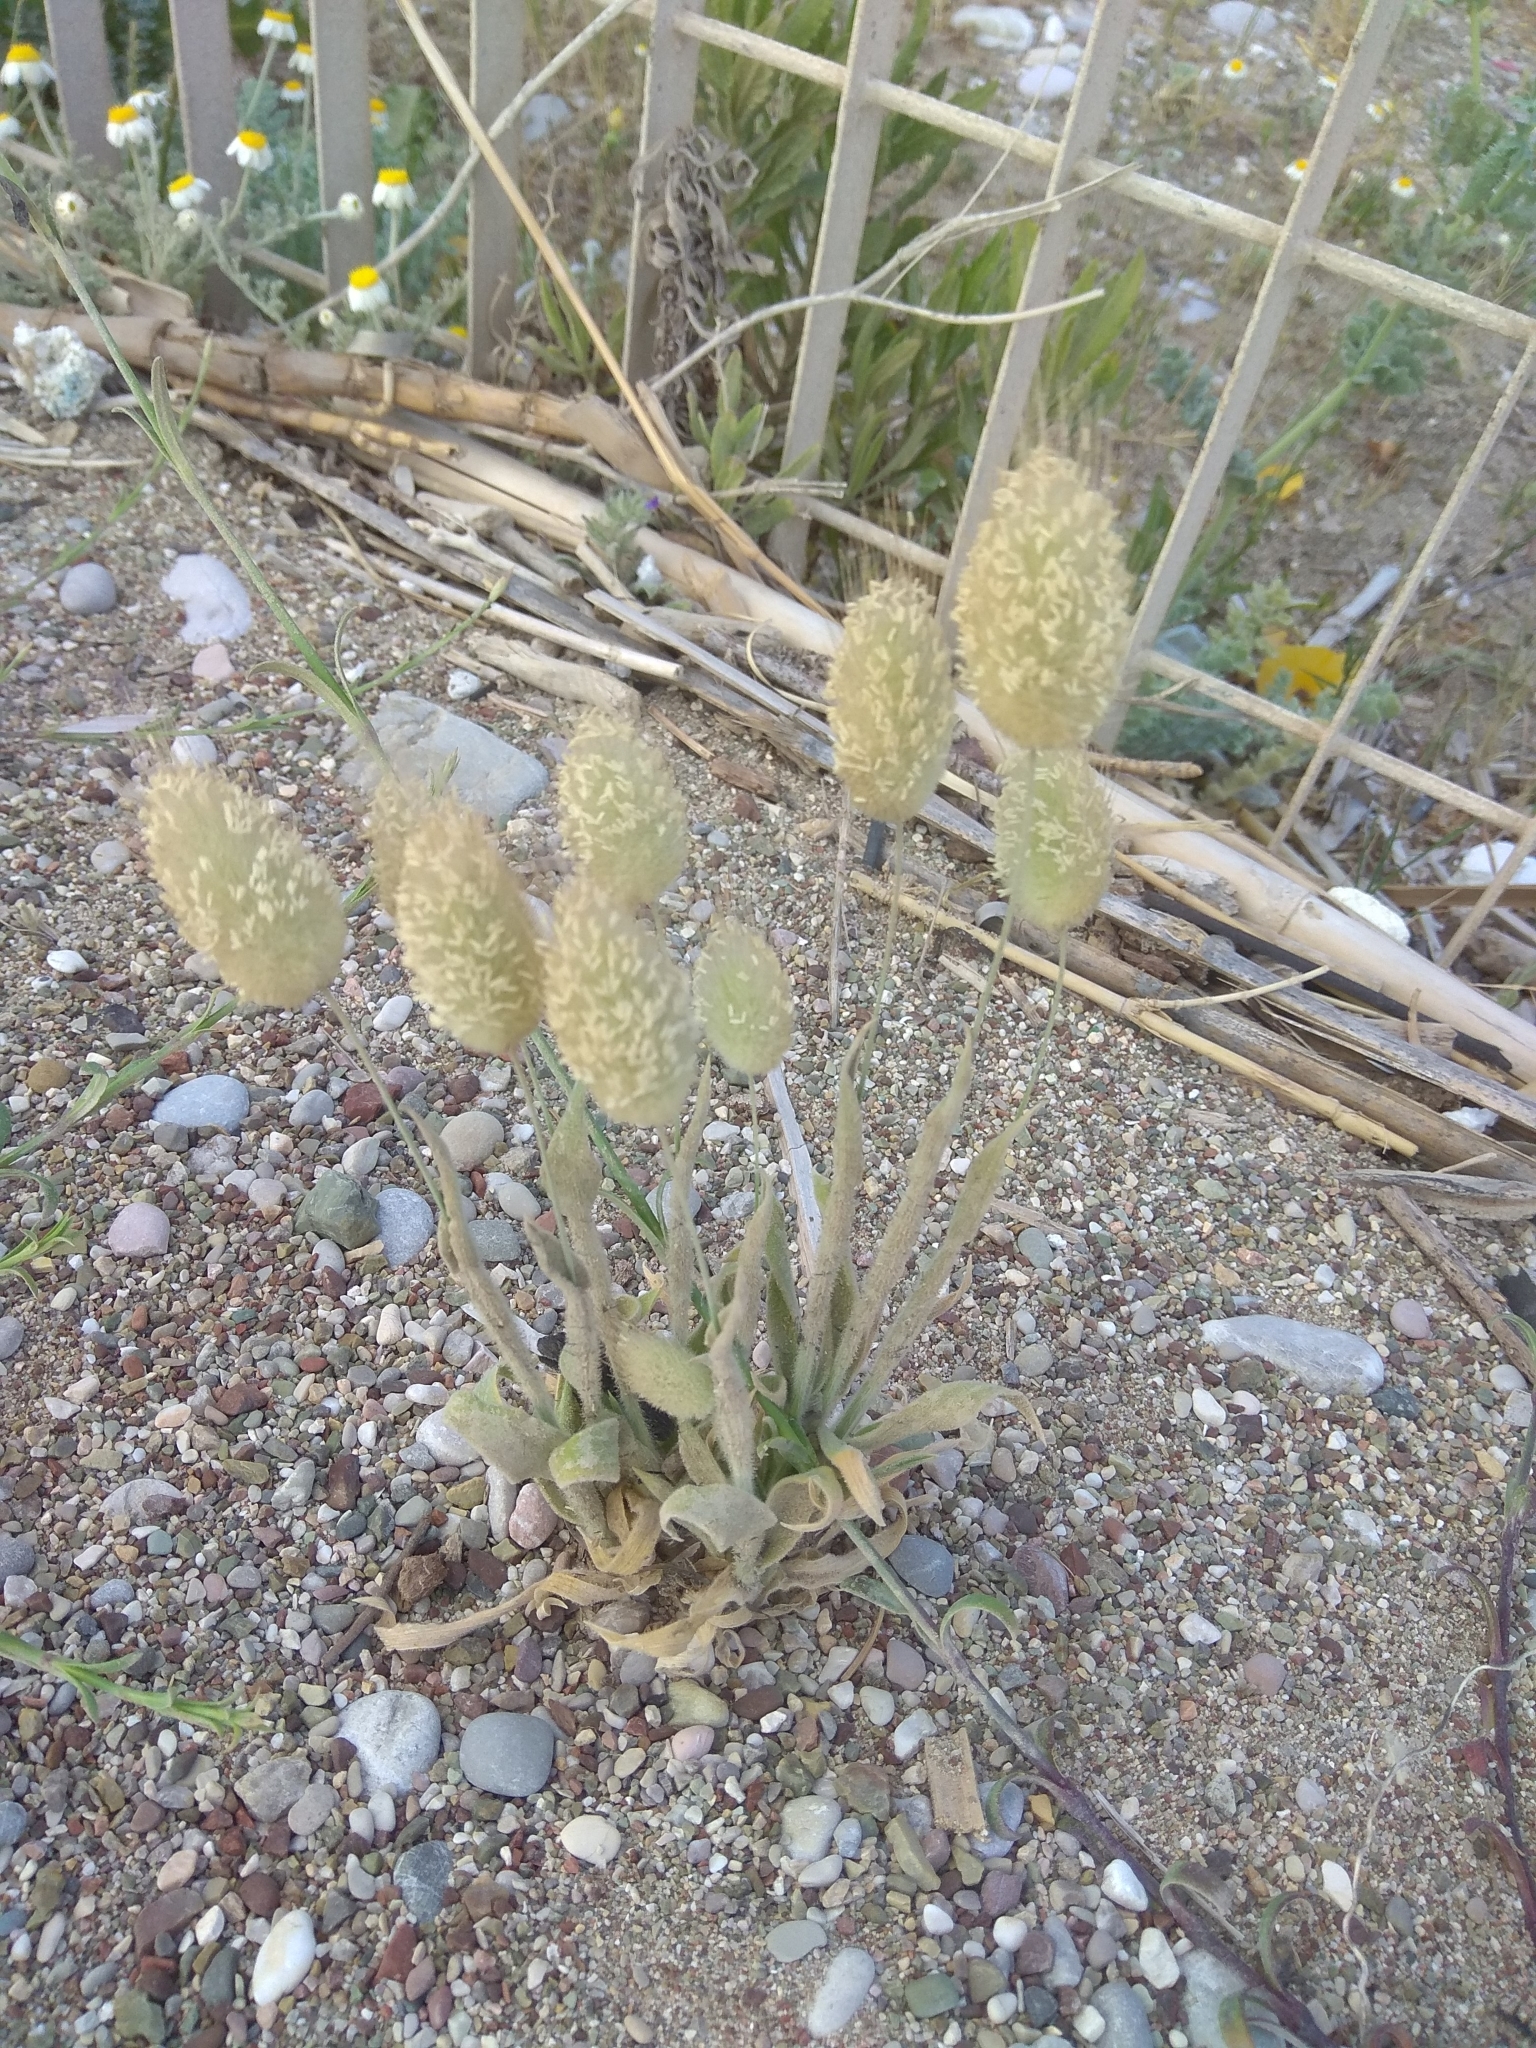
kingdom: Plantae
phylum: Tracheophyta
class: Liliopsida
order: Poales
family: Poaceae
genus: Lagurus
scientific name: Lagurus ovatus
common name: Hare's-tail
